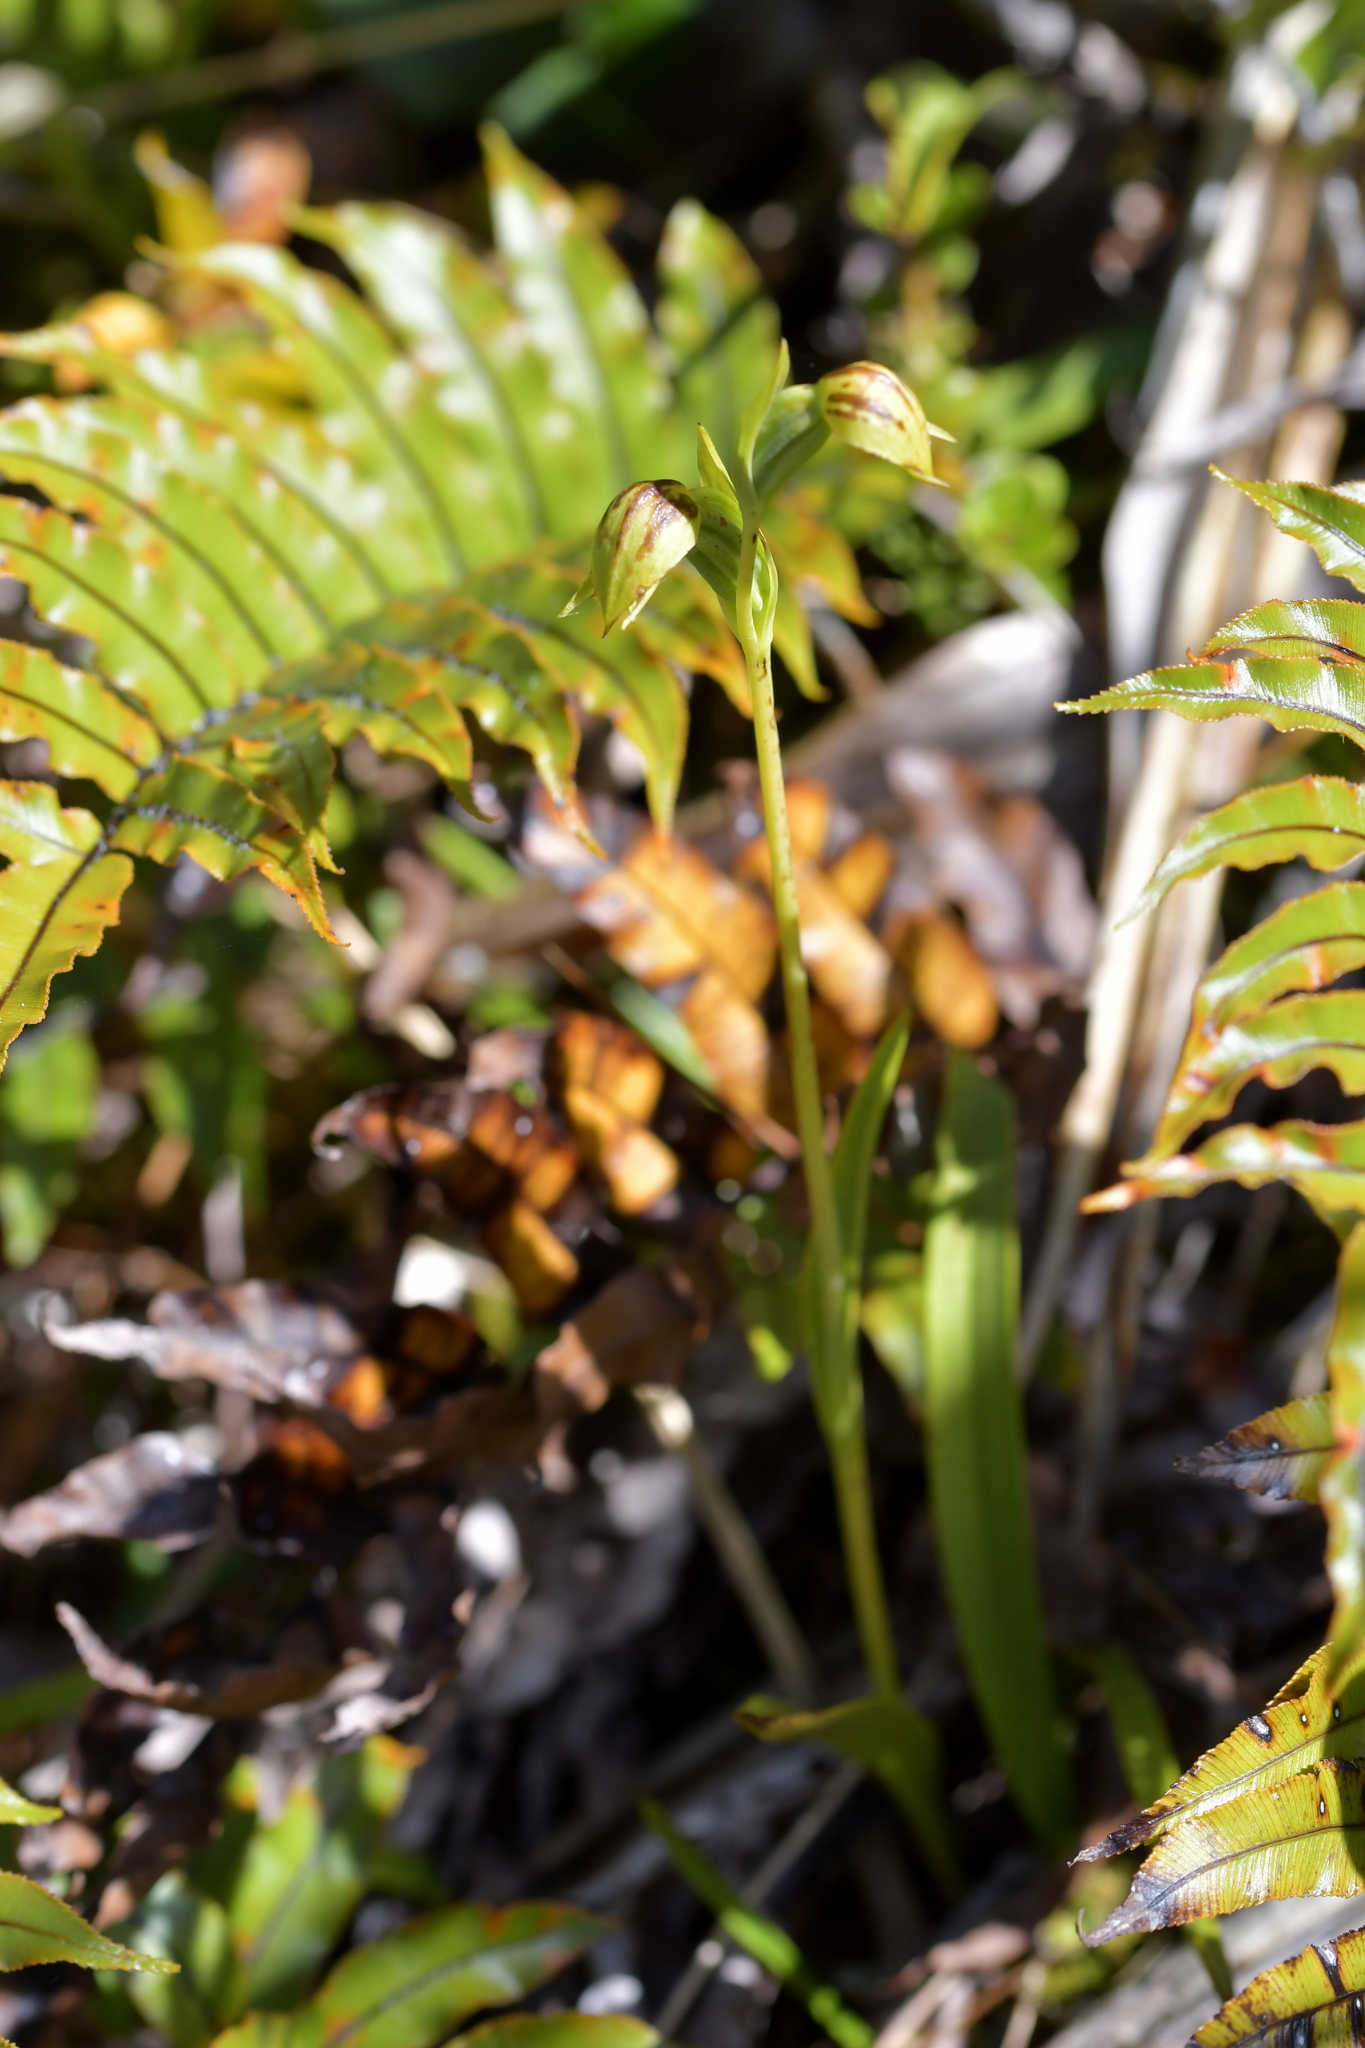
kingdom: Plantae
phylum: Tracheophyta
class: Liliopsida
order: Asparagales
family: Orchidaceae
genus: Waireia
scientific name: Waireia stenopetala
